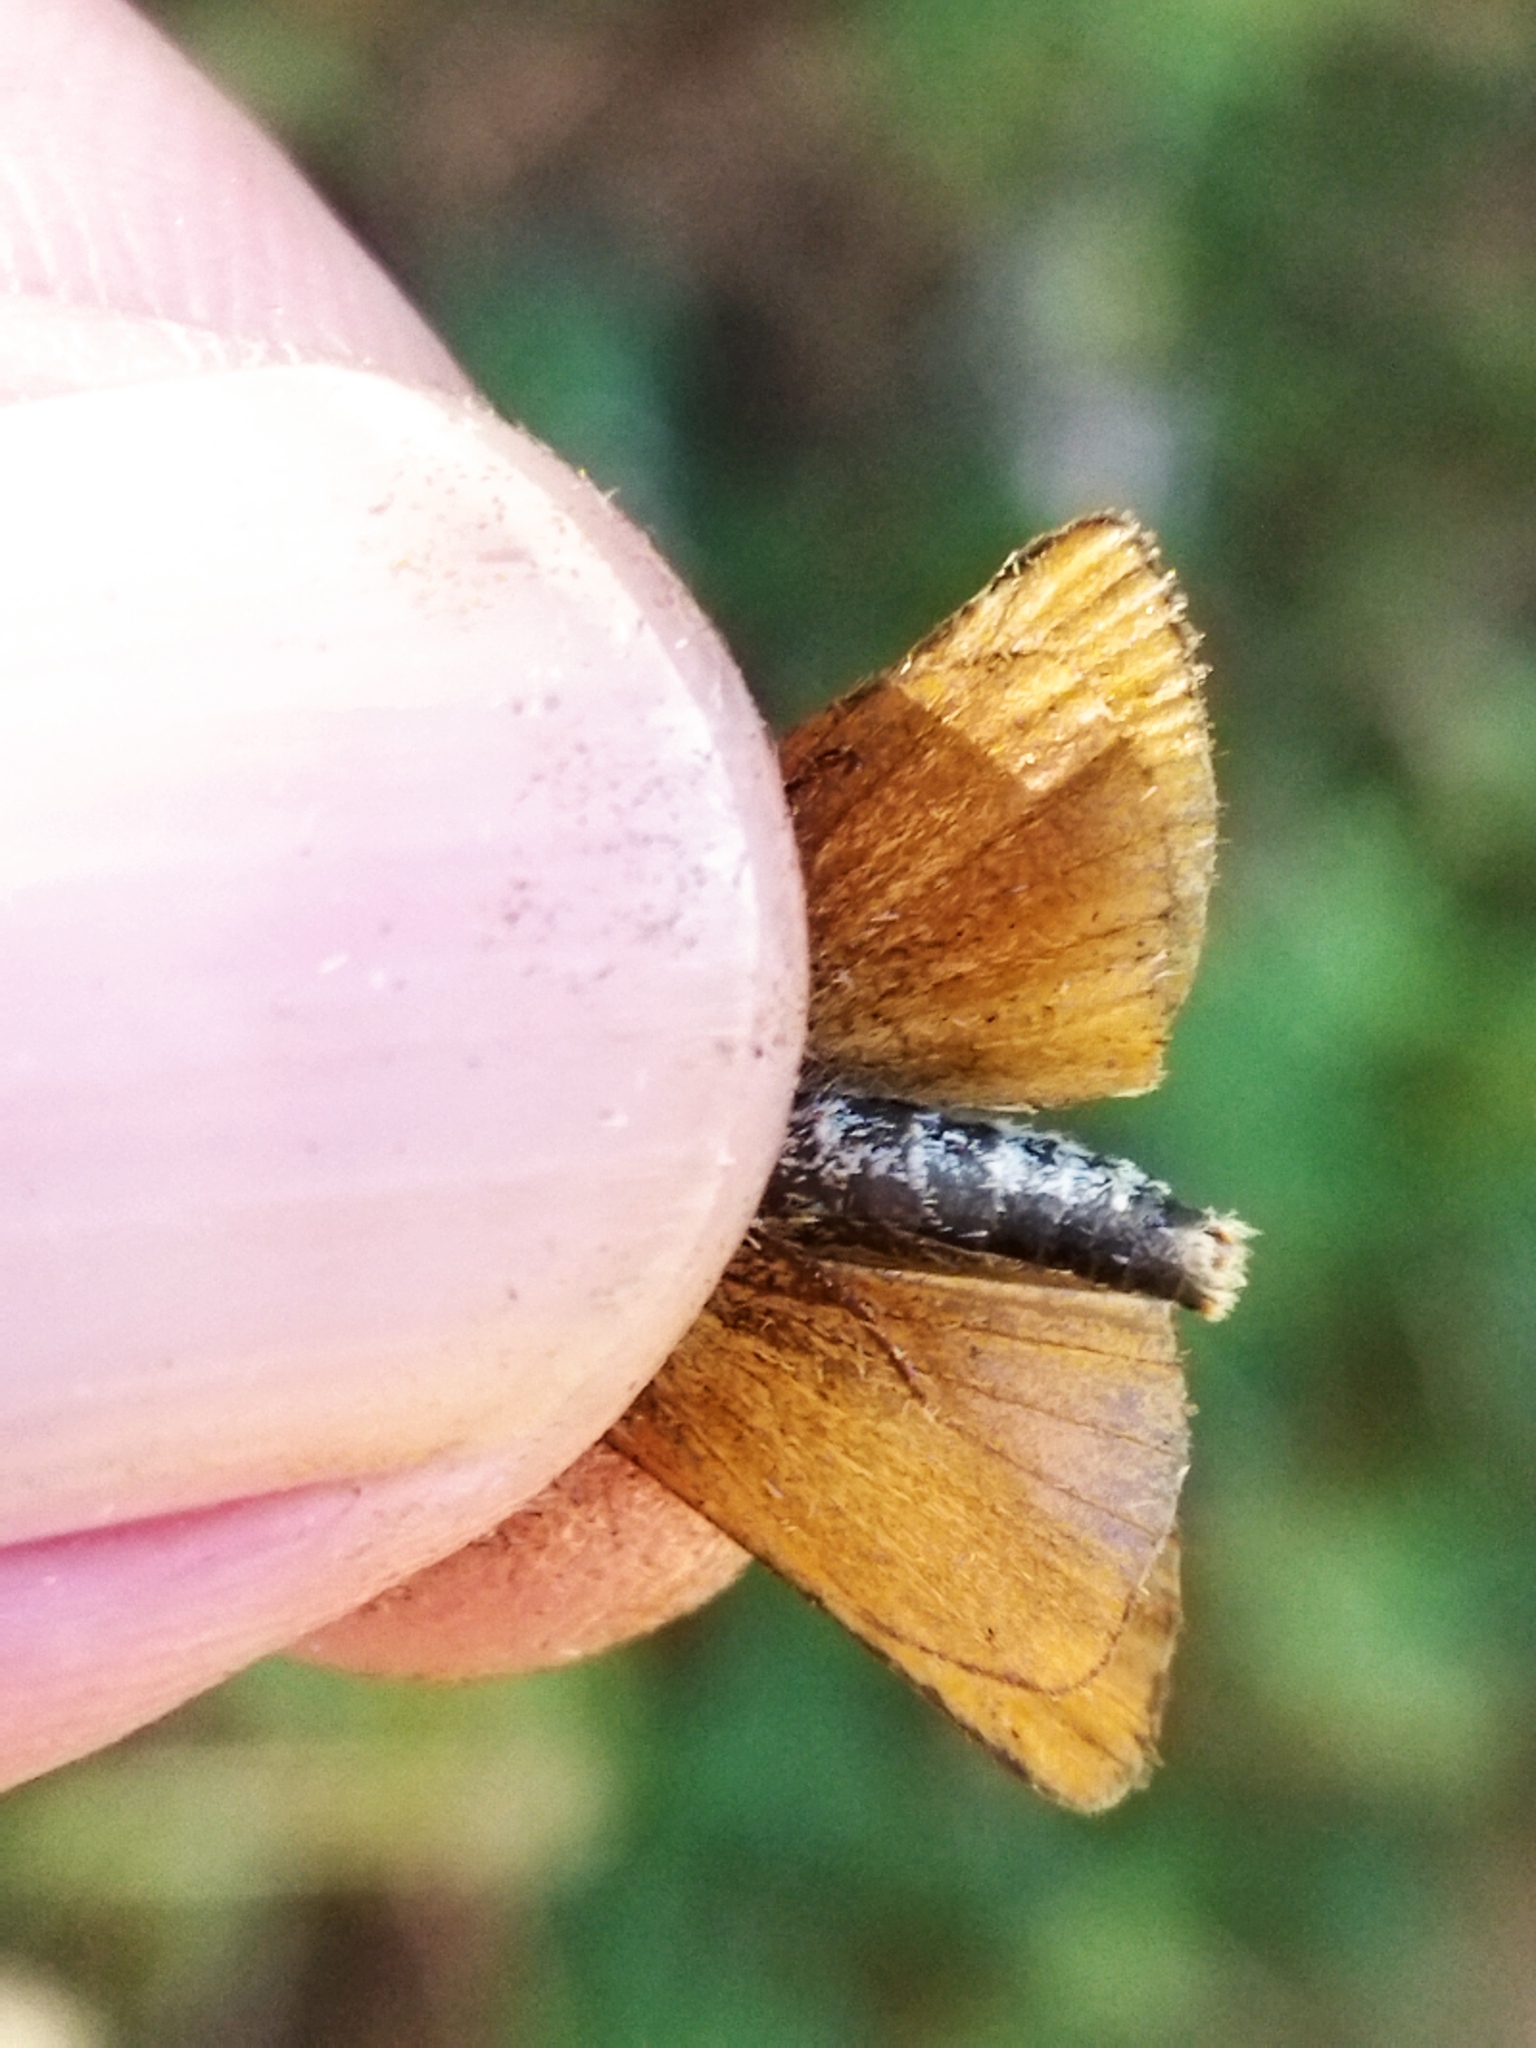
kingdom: Animalia
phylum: Arthropoda
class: Insecta
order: Lepidoptera
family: Hesperiidae
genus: Thymelicus
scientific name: Thymelicus
